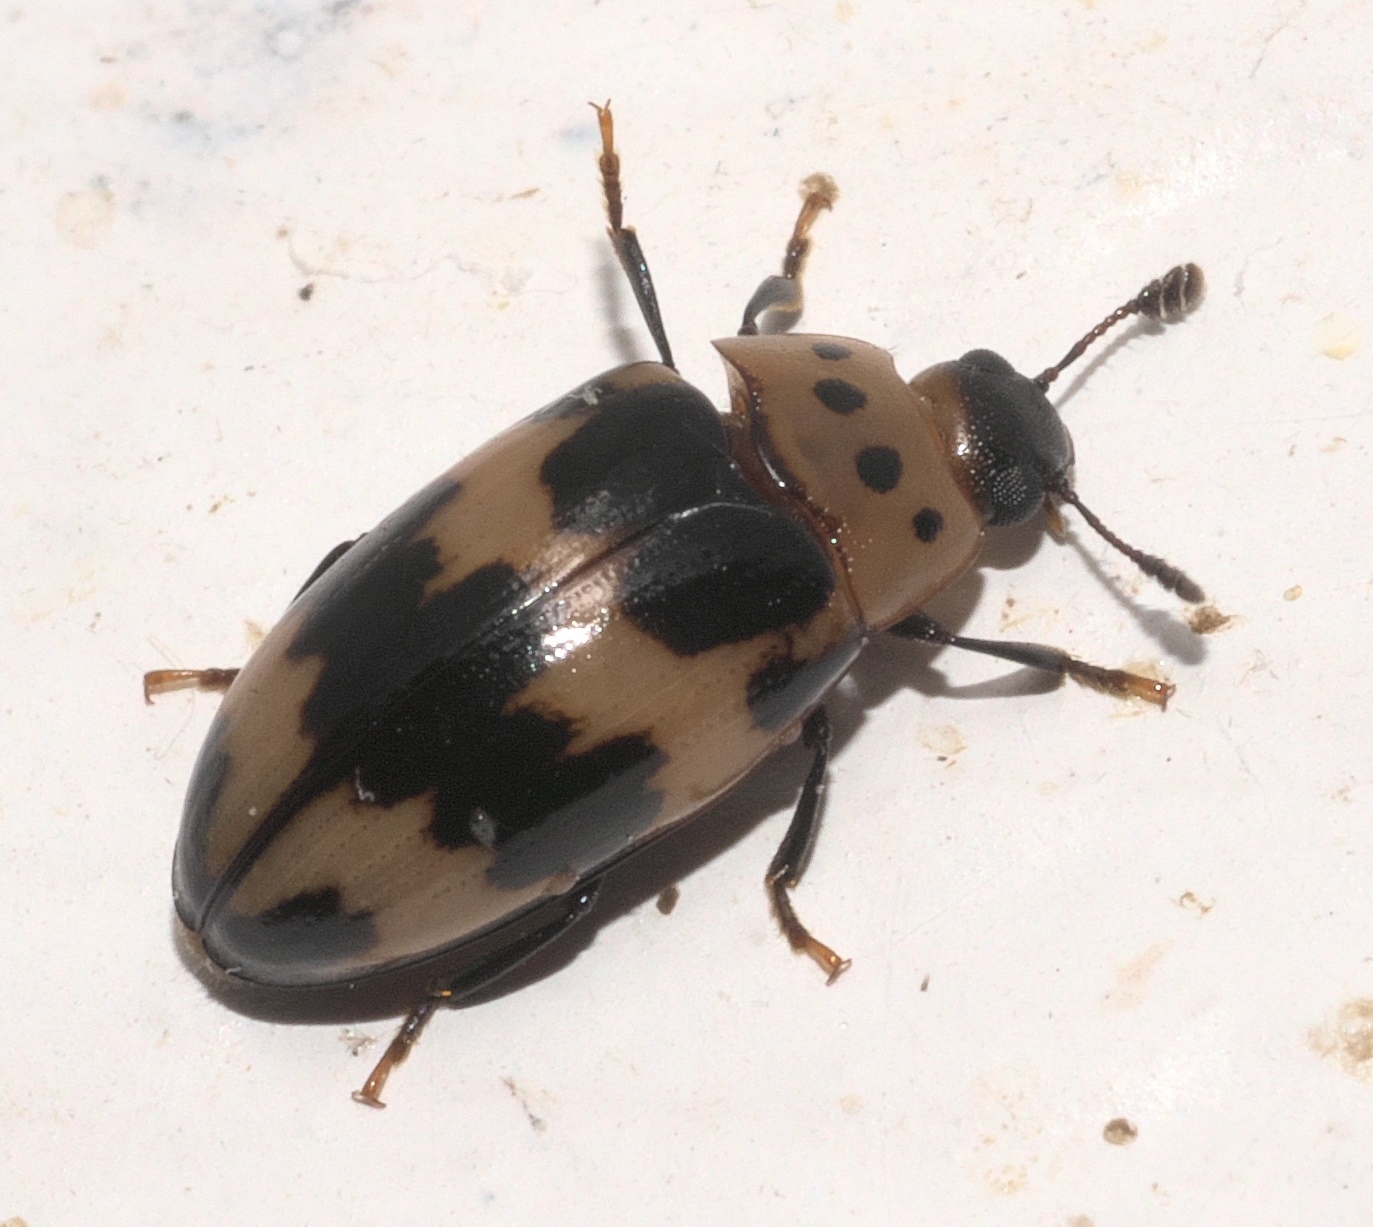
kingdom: Animalia
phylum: Arthropoda
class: Insecta
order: Coleoptera
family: Erotylidae
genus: Ischyrus
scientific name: Ischyrus quadripunctatus
